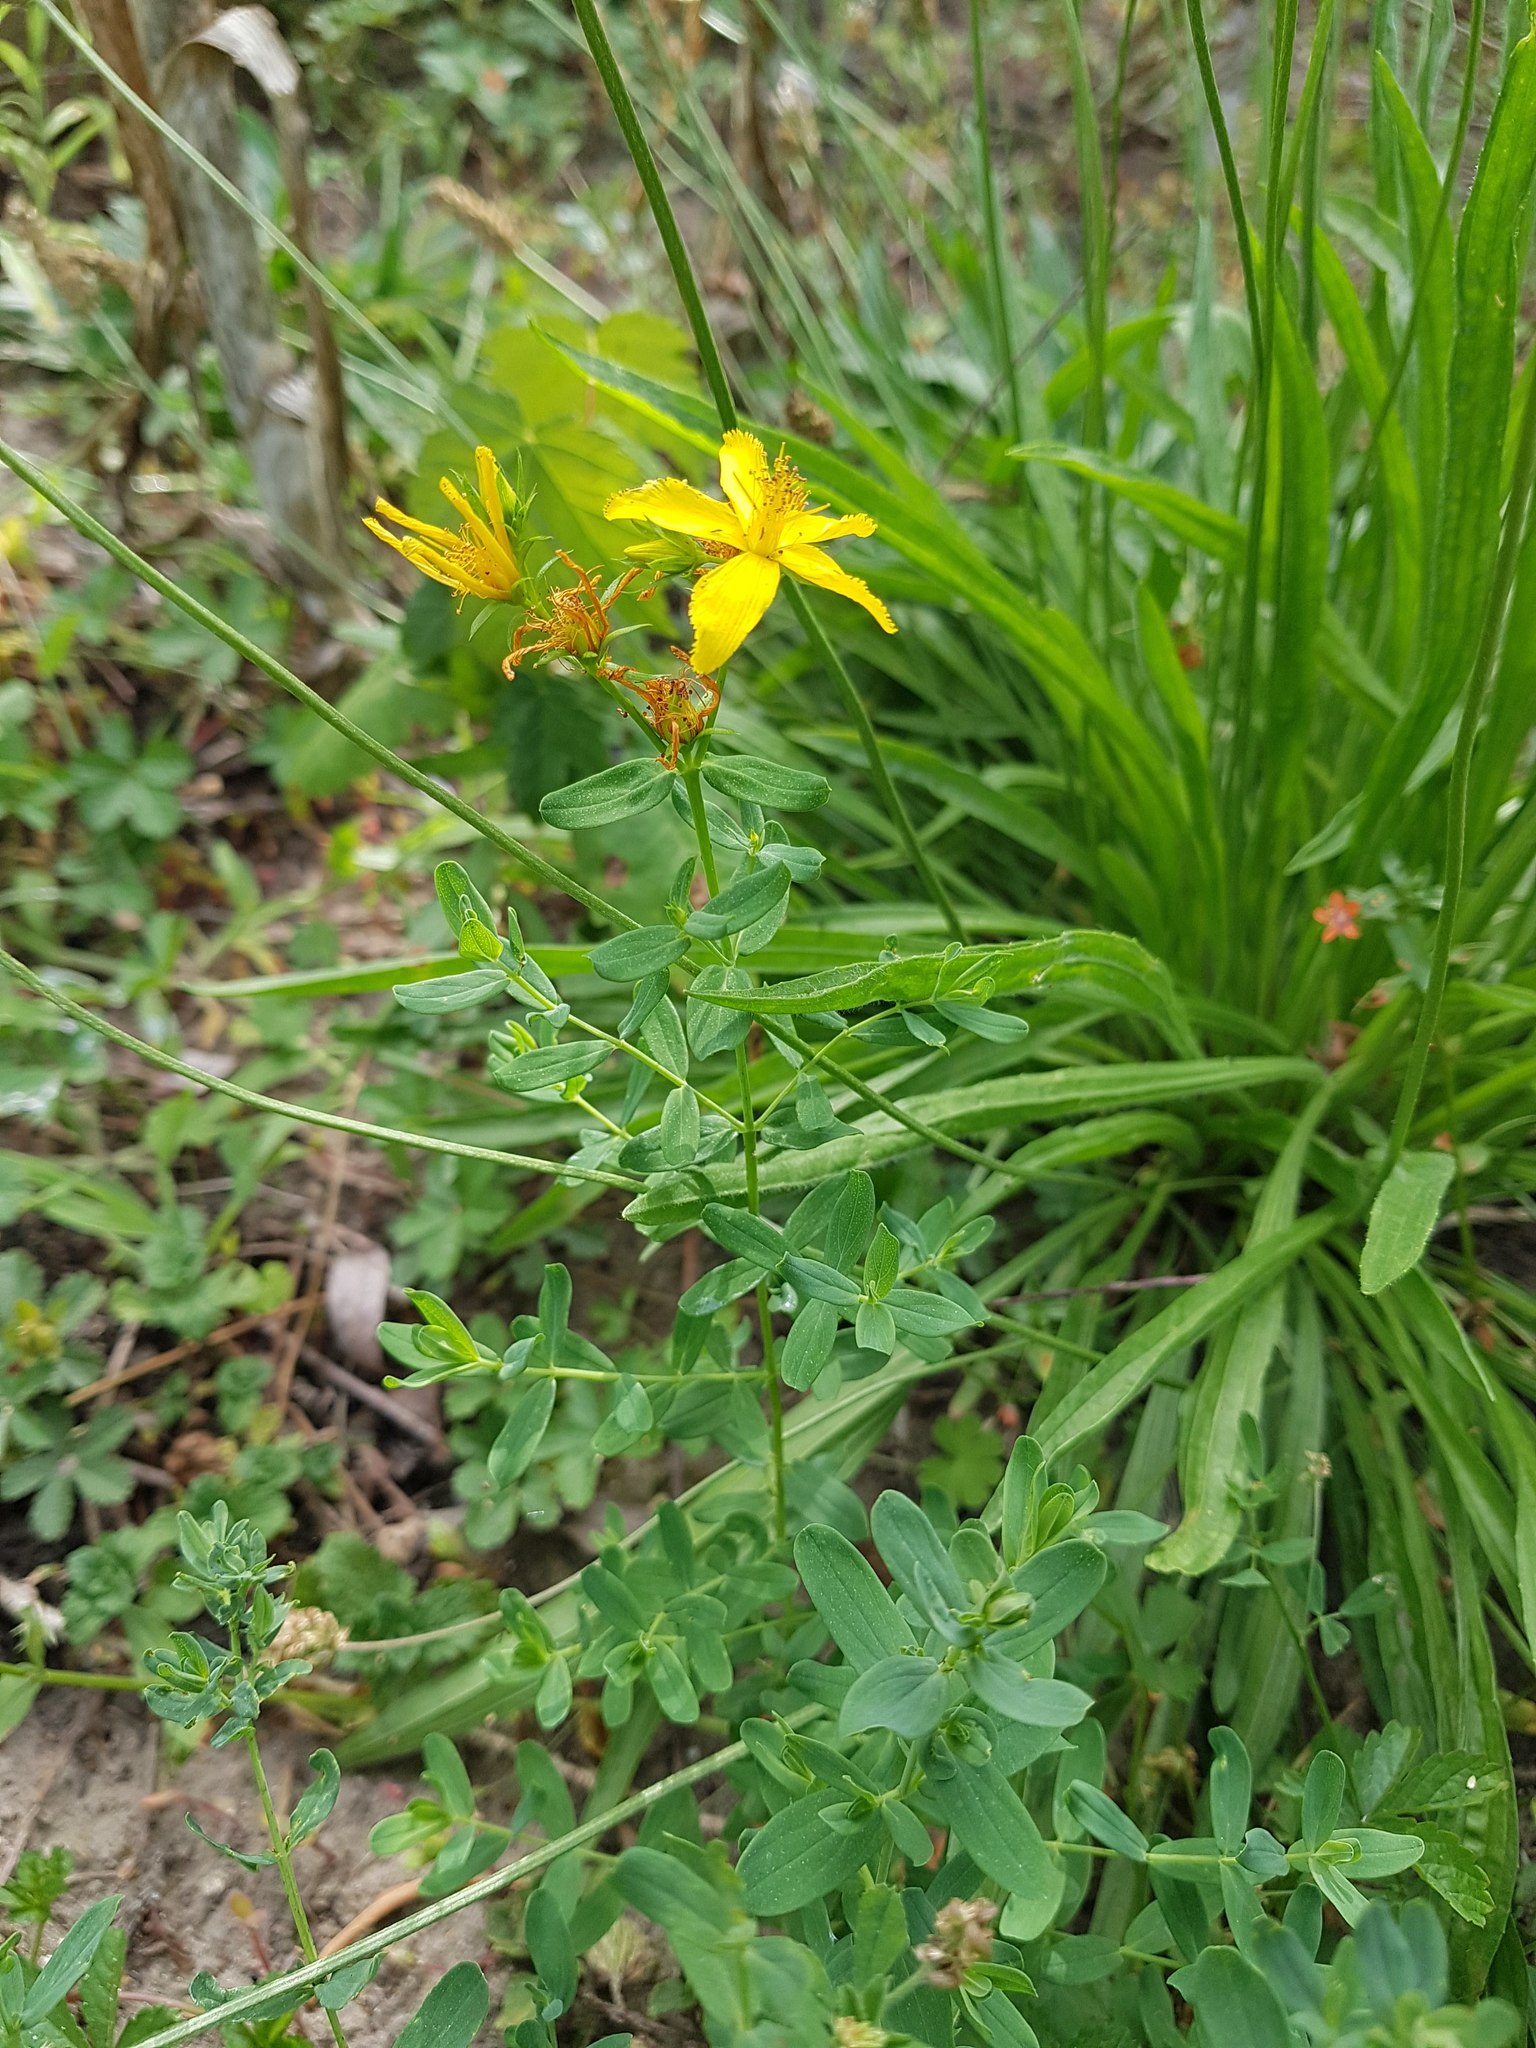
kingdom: Plantae
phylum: Tracheophyta
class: Magnoliopsida
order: Malpighiales
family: Hypericaceae
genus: Hypericum
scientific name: Hypericum perforatum
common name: Common st. johnswort
